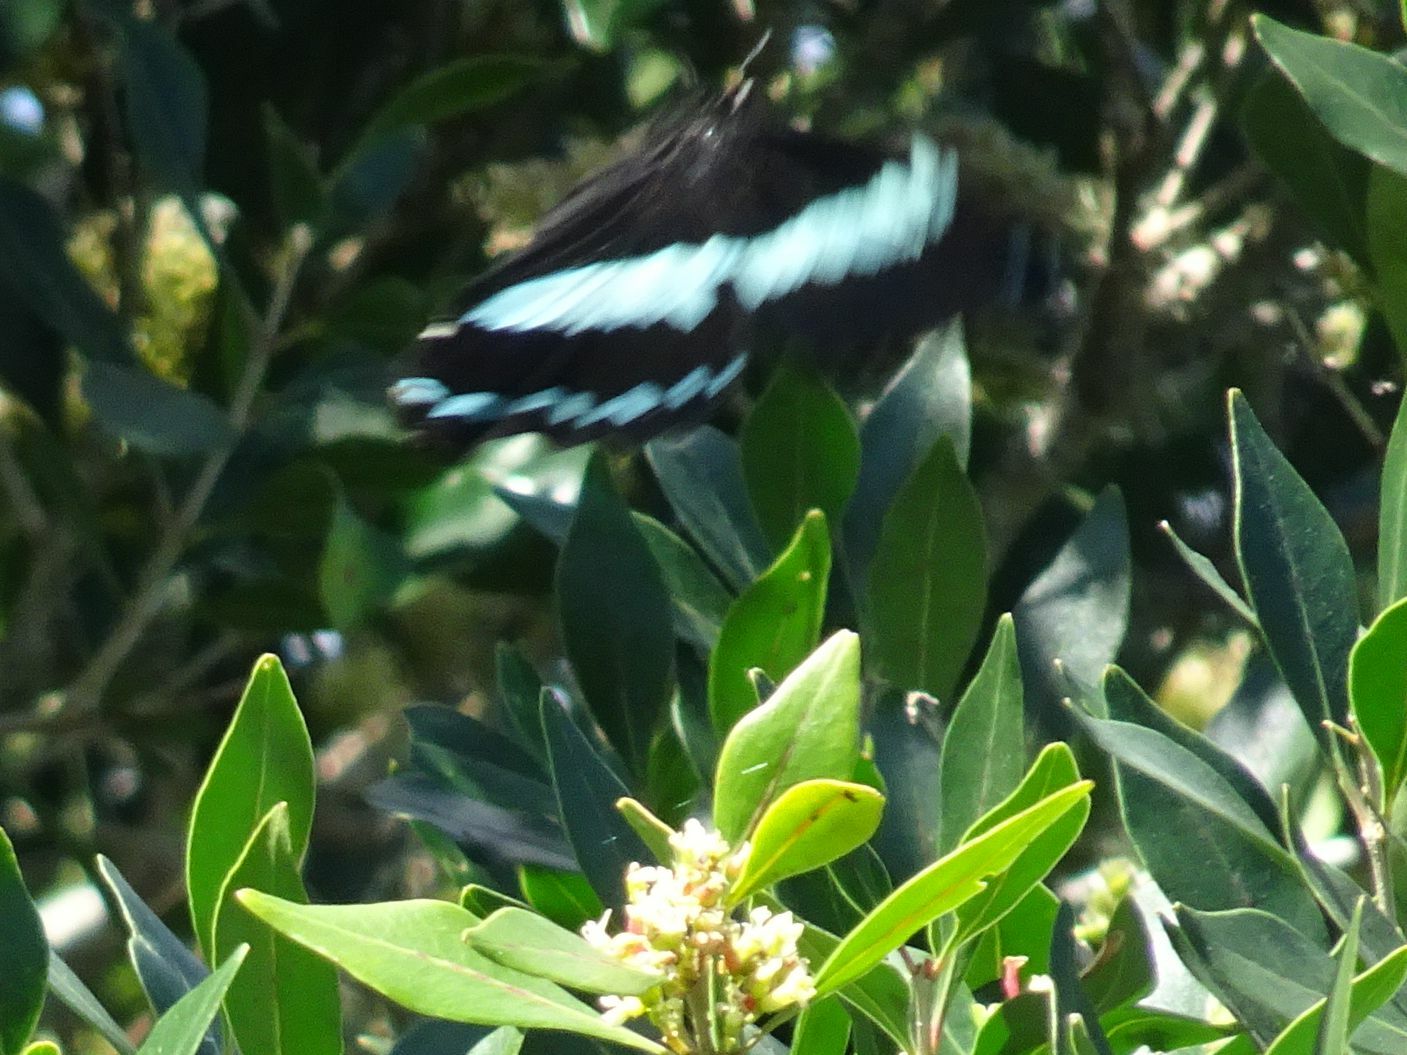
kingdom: Animalia
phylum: Arthropoda
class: Insecta
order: Lepidoptera
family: Papilionidae
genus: Papilio
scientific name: Papilio nireus
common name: Greenbanded swallowtail
